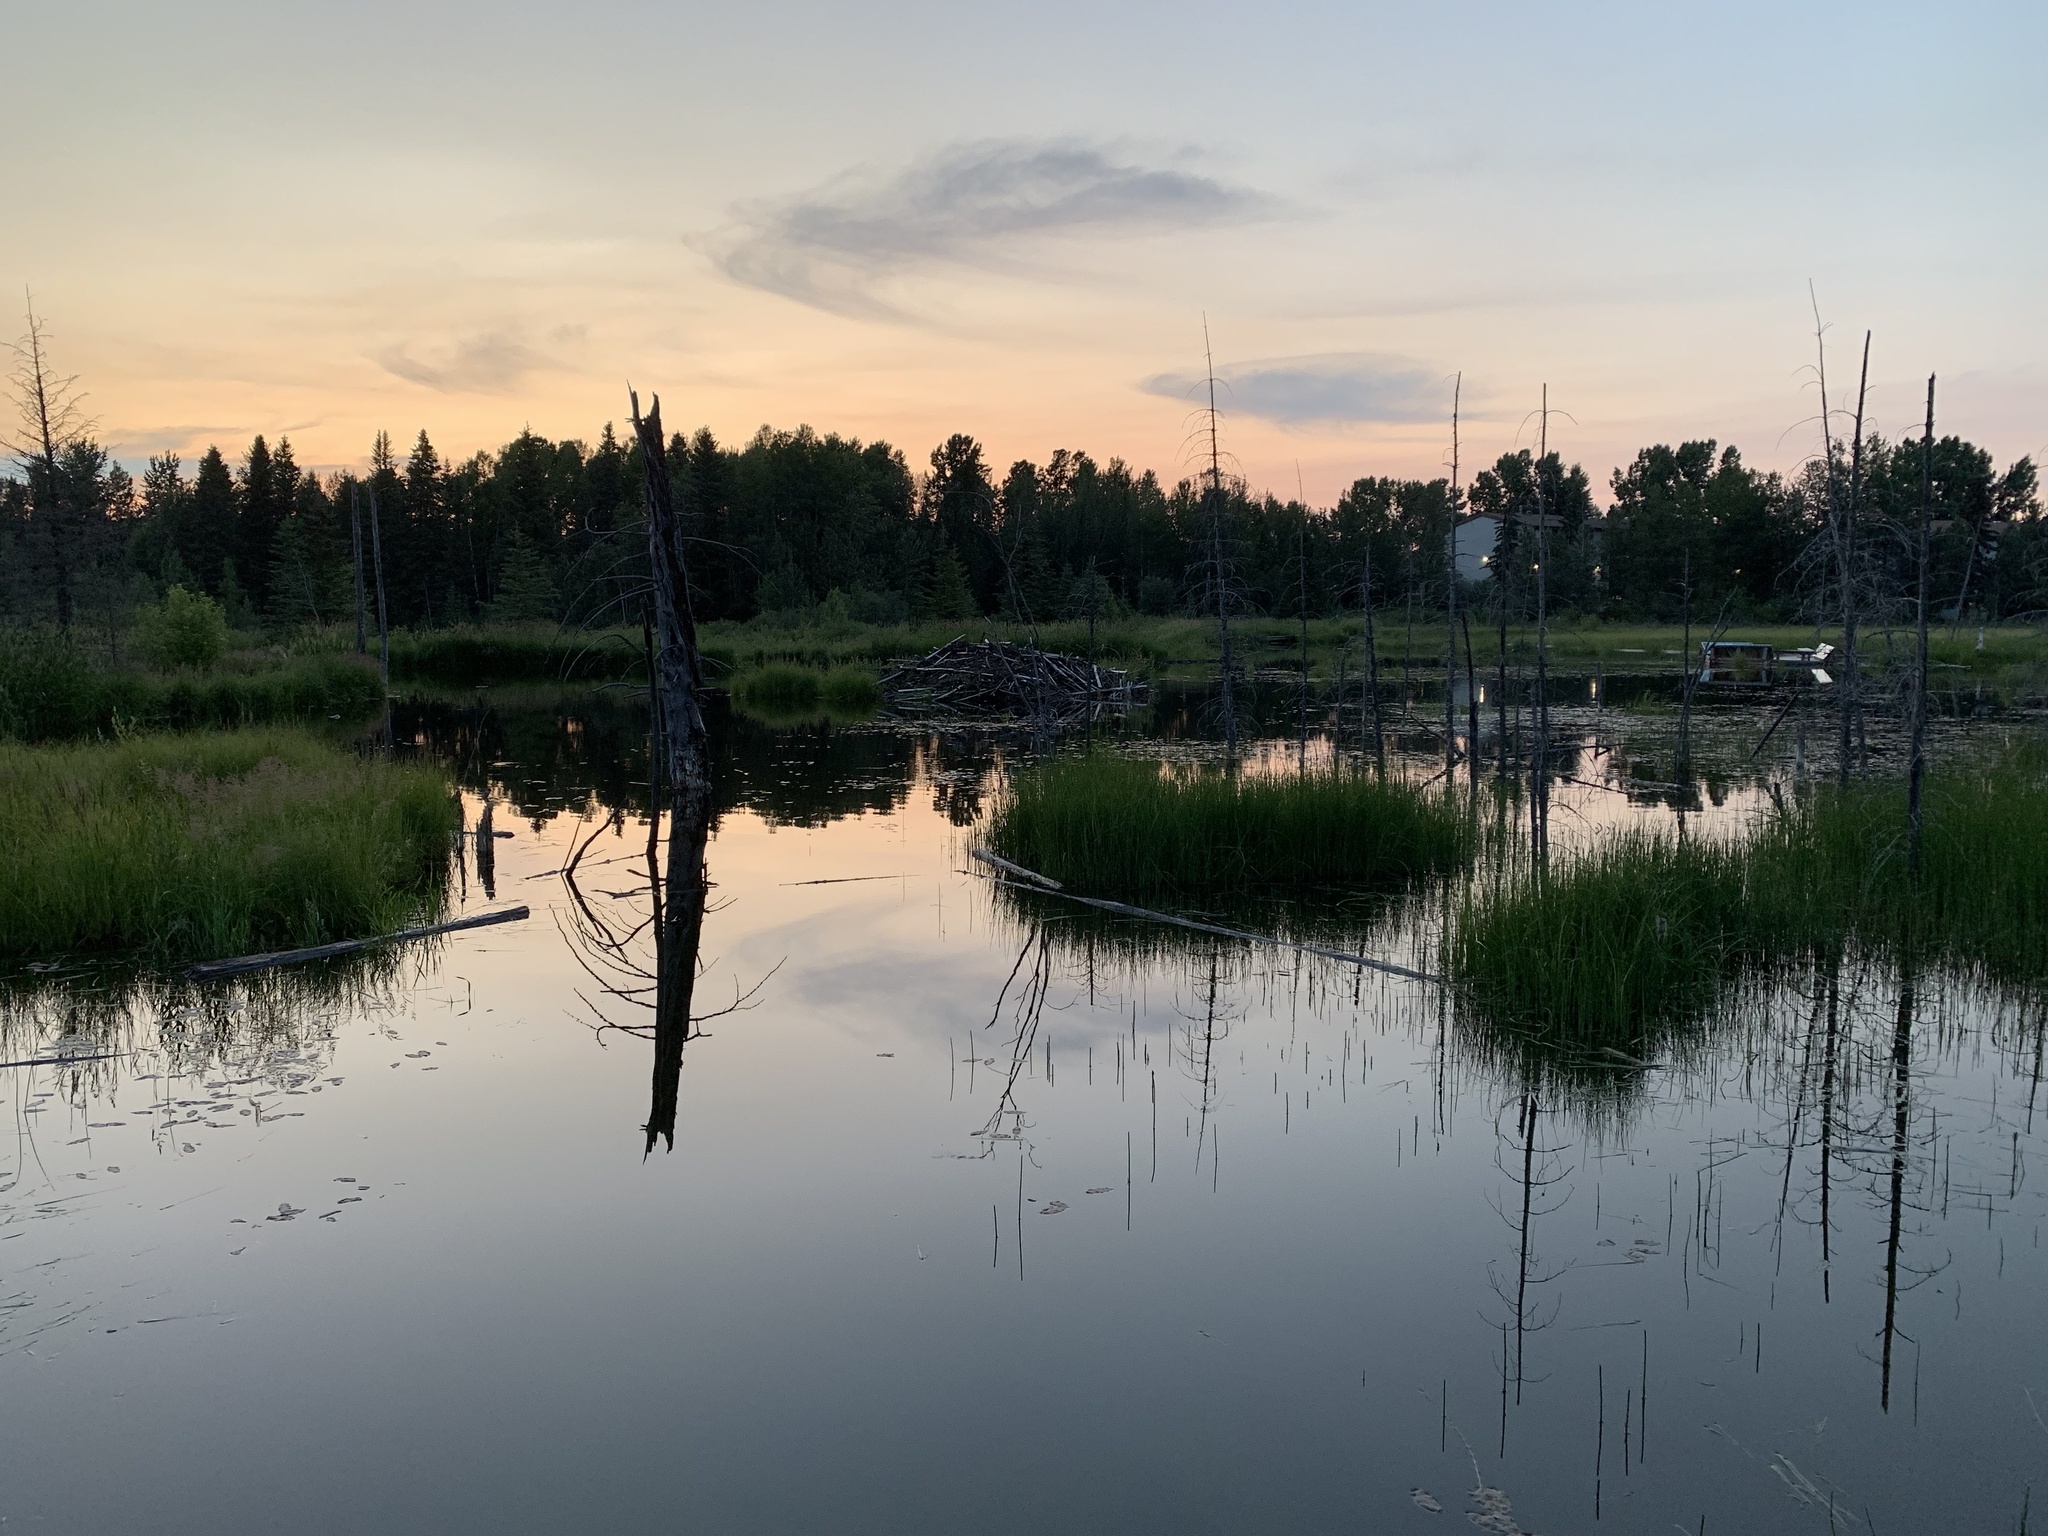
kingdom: Animalia
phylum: Chordata
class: Mammalia
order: Rodentia
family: Castoridae
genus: Castor
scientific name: Castor canadensis
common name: American beaver
